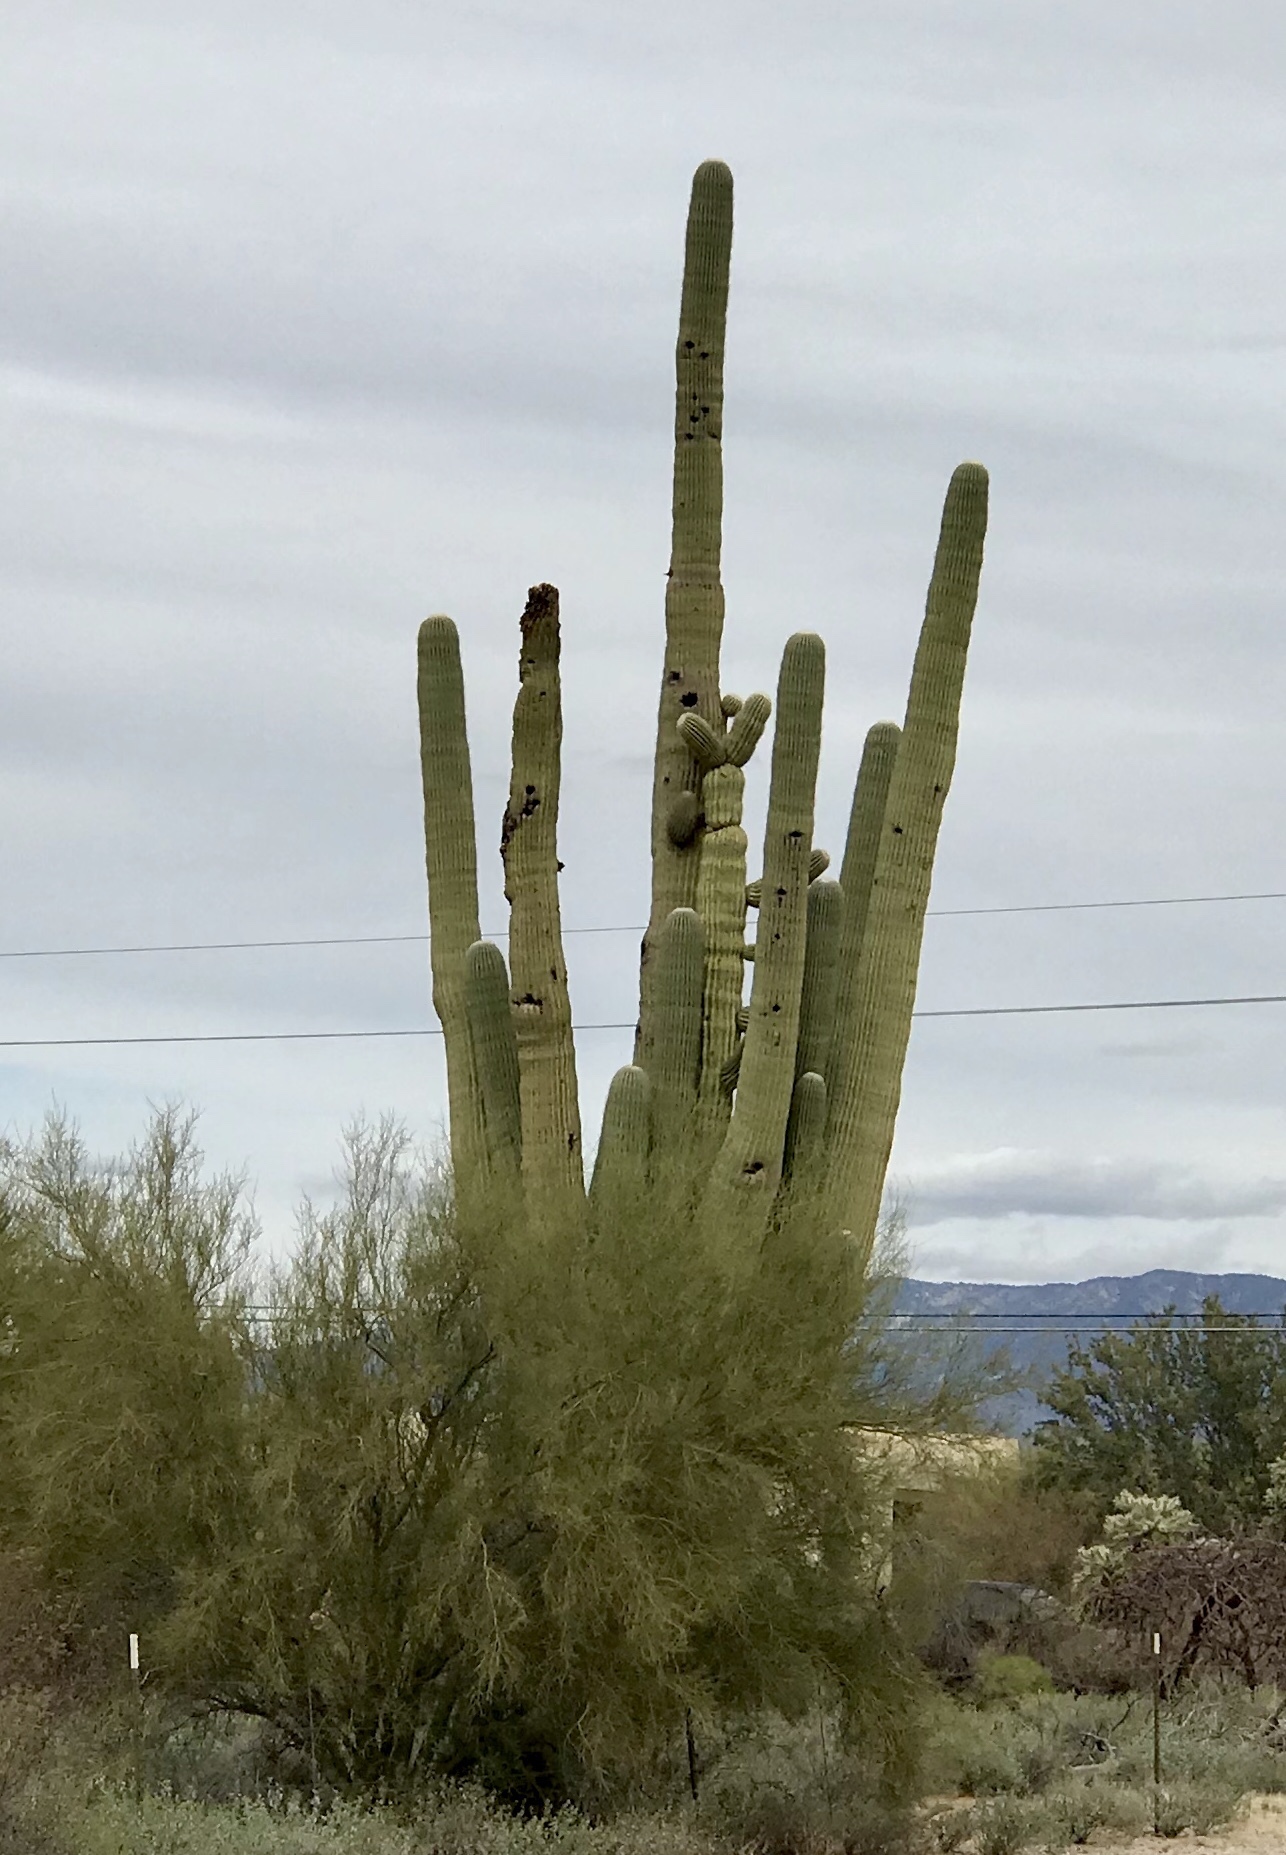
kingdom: Plantae
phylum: Tracheophyta
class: Magnoliopsida
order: Caryophyllales
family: Cactaceae
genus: Carnegiea
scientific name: Carnegiea gigantea
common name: Saguaro
